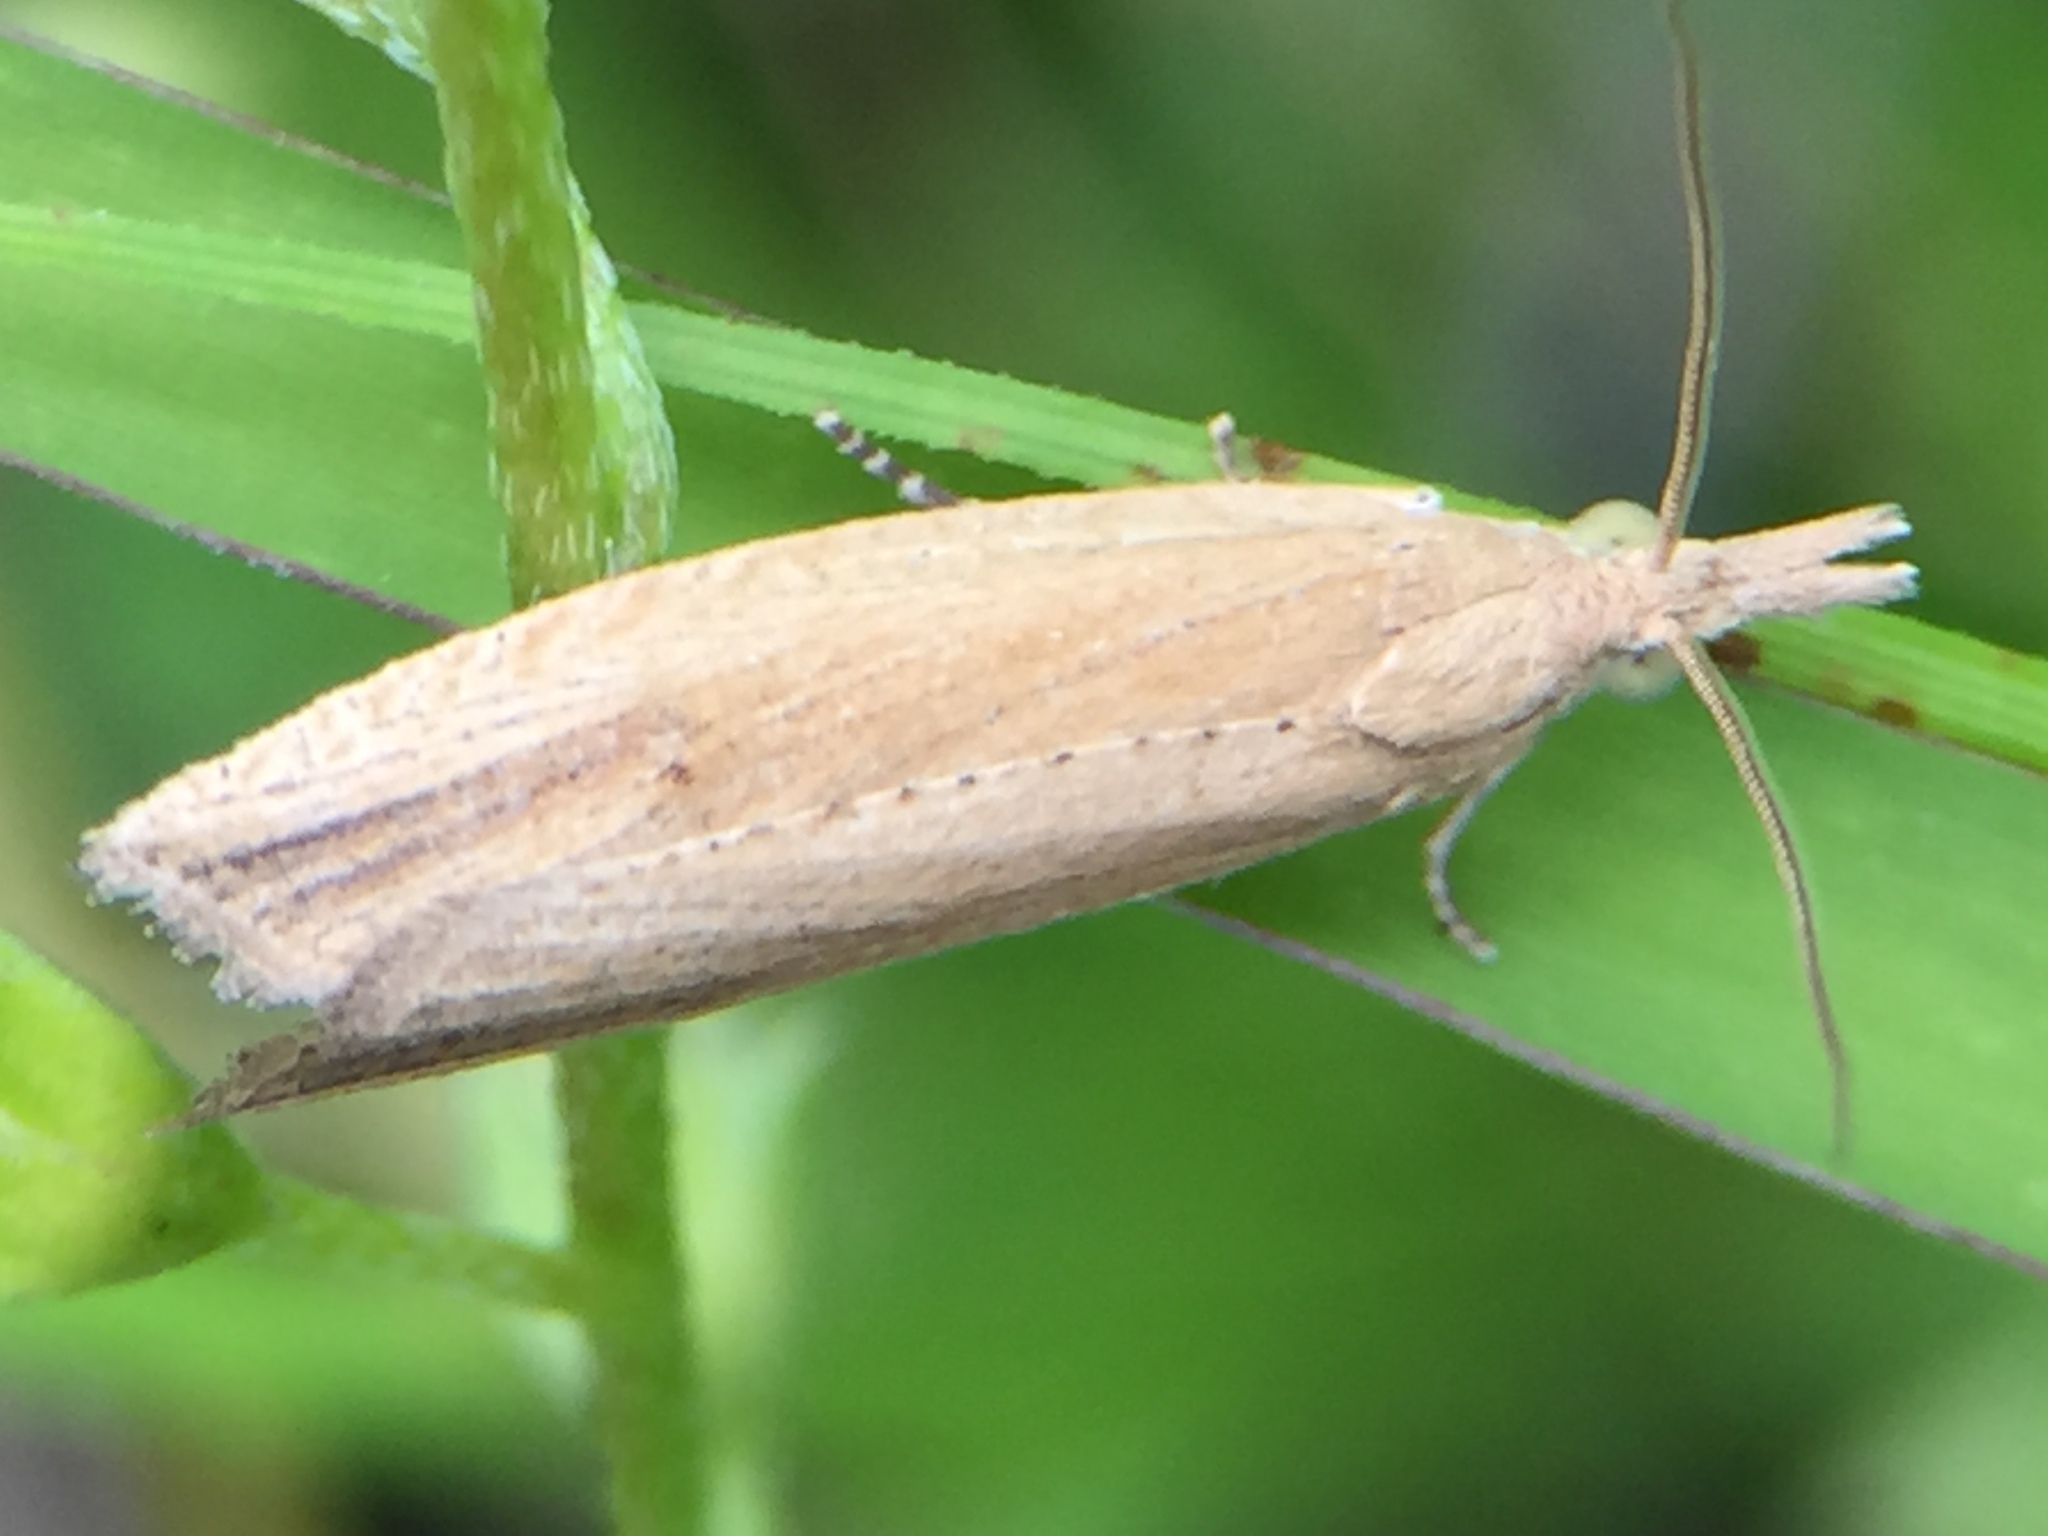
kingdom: Animalia
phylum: Arthropoda
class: Insecta
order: Lepidoptera
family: Tortricidae
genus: Bactra
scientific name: Bactra noteraula
